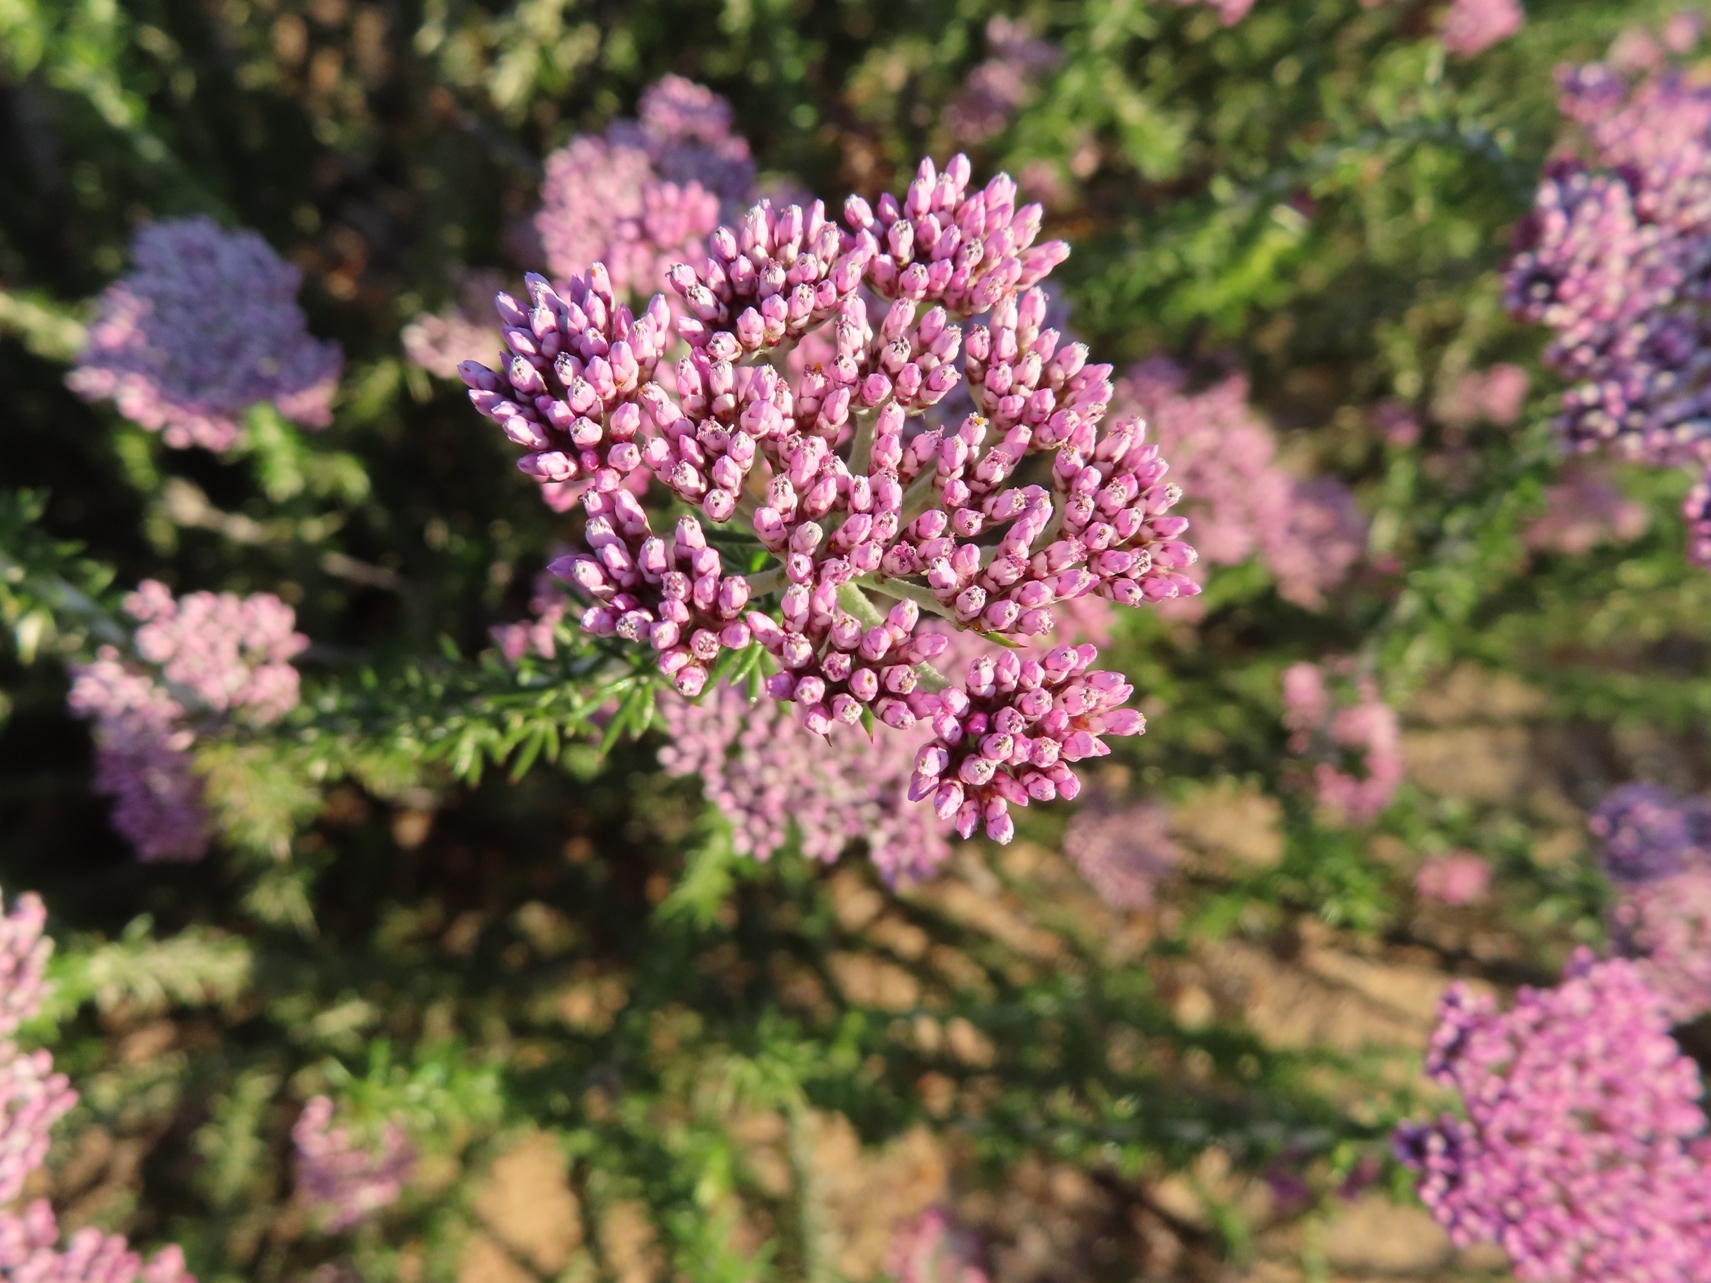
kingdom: Plantae
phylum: Tracheophyta
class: Magnoliopsida
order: Asterales
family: Asteraceae
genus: Metalasia
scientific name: Metalasia fastigiata
